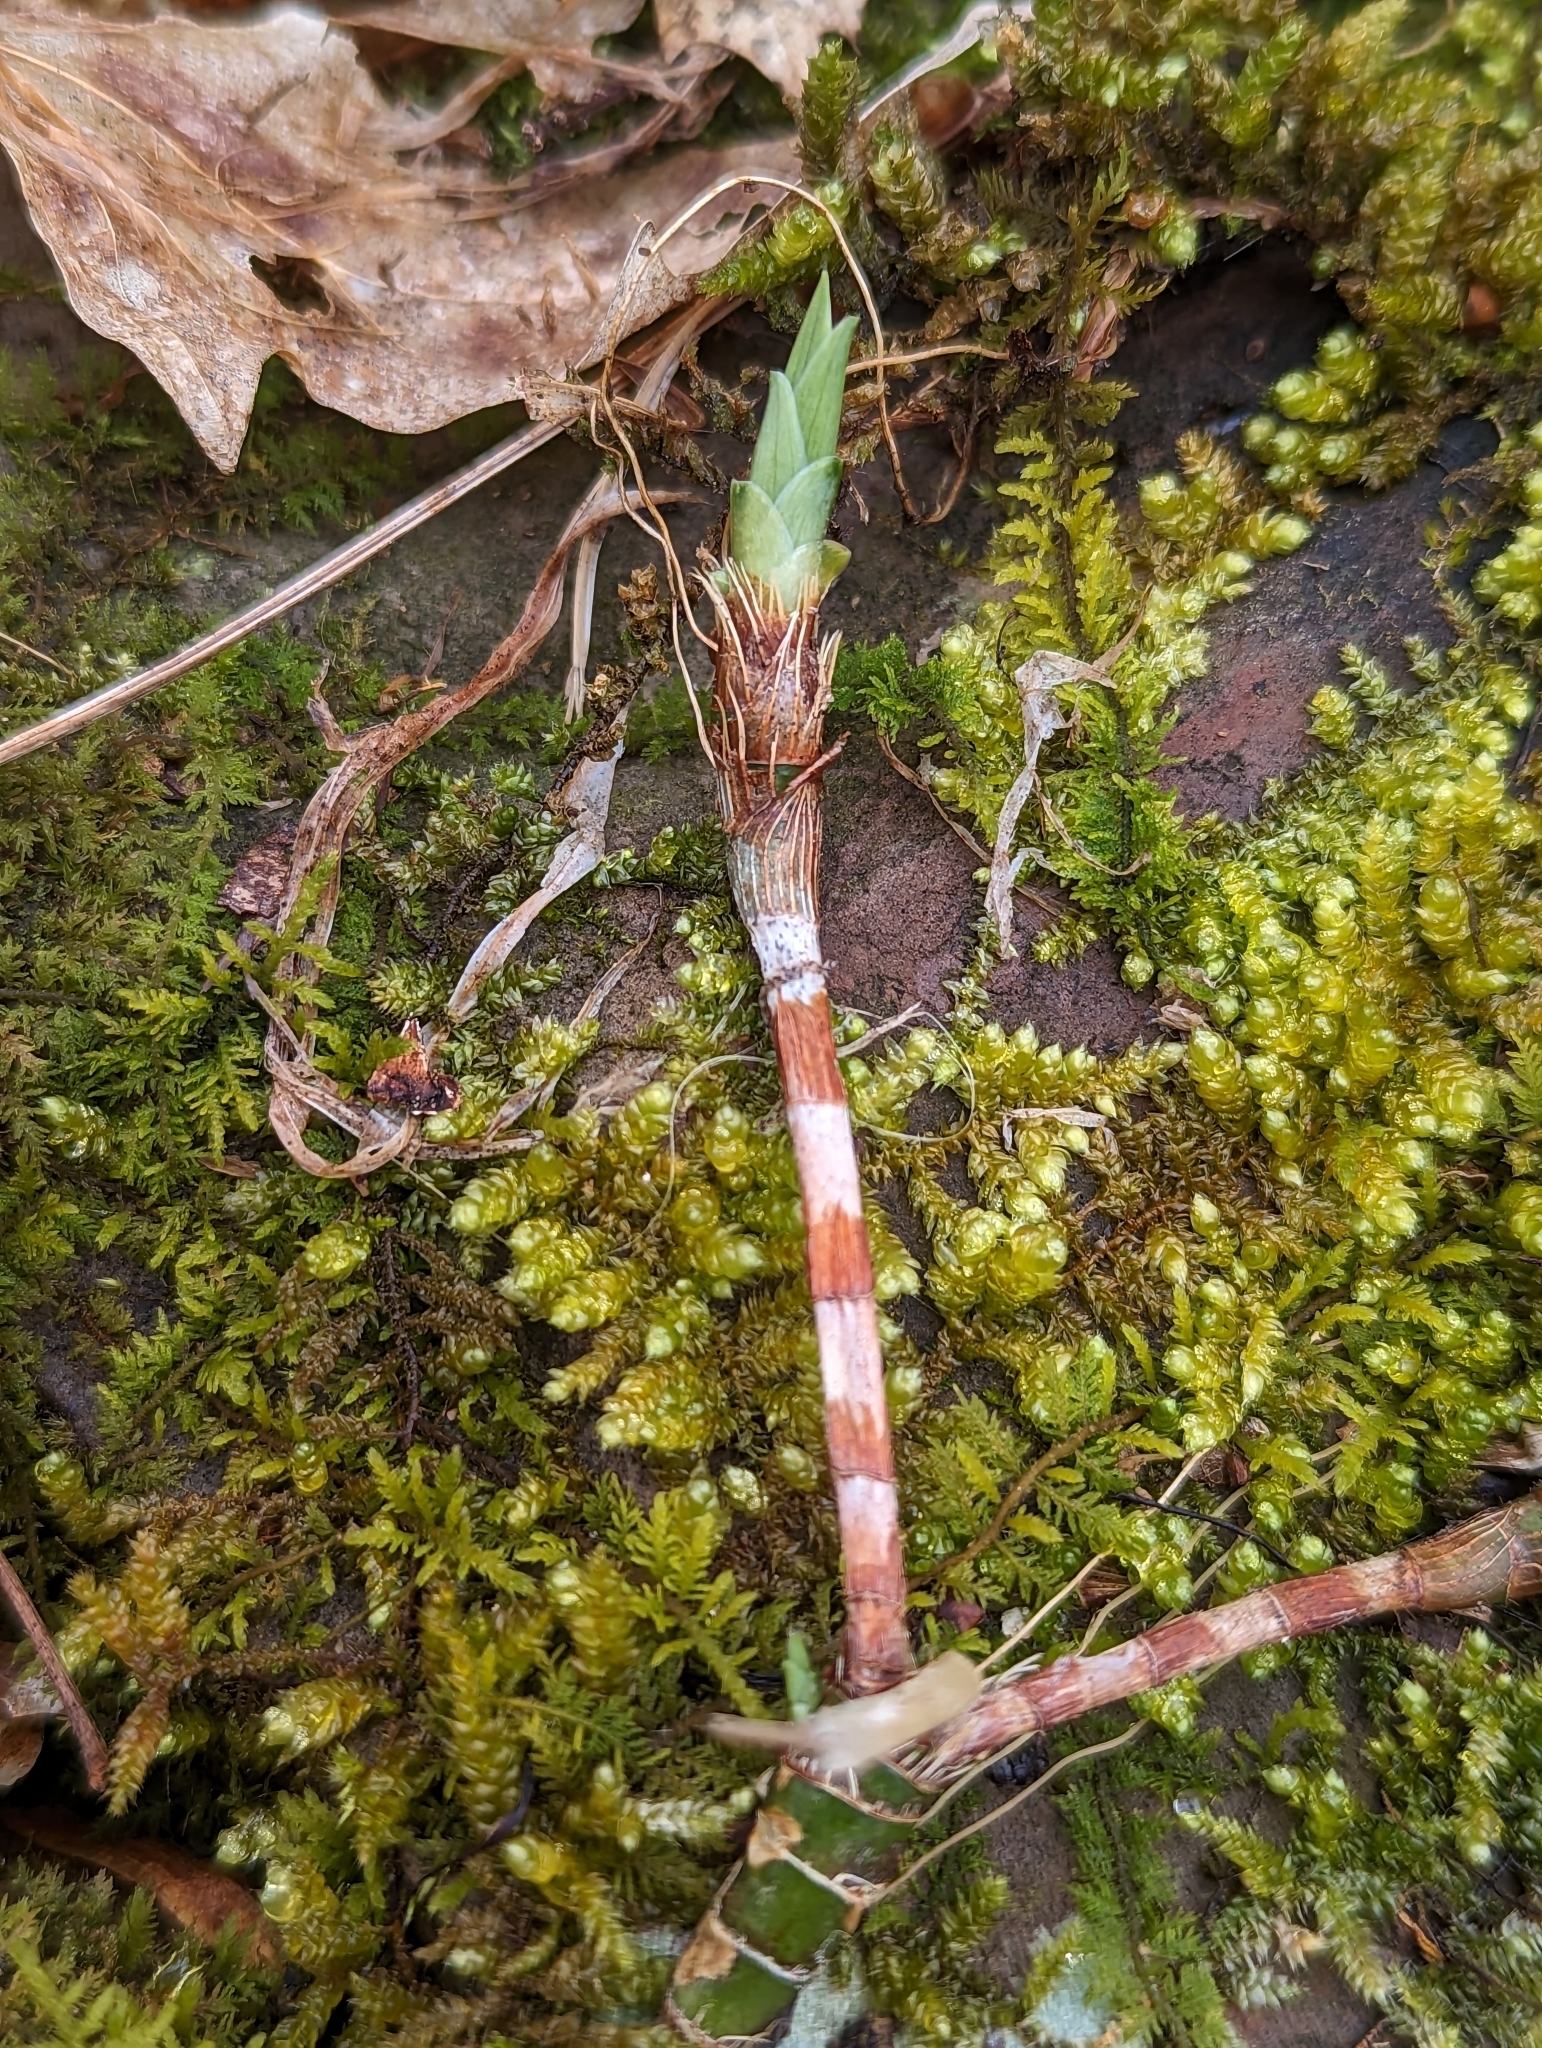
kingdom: Plantae
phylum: Tracheophyta
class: Liliopsida
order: Asparagales
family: Iridaceae
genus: Iris
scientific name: Iris cristata
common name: Crested iris
